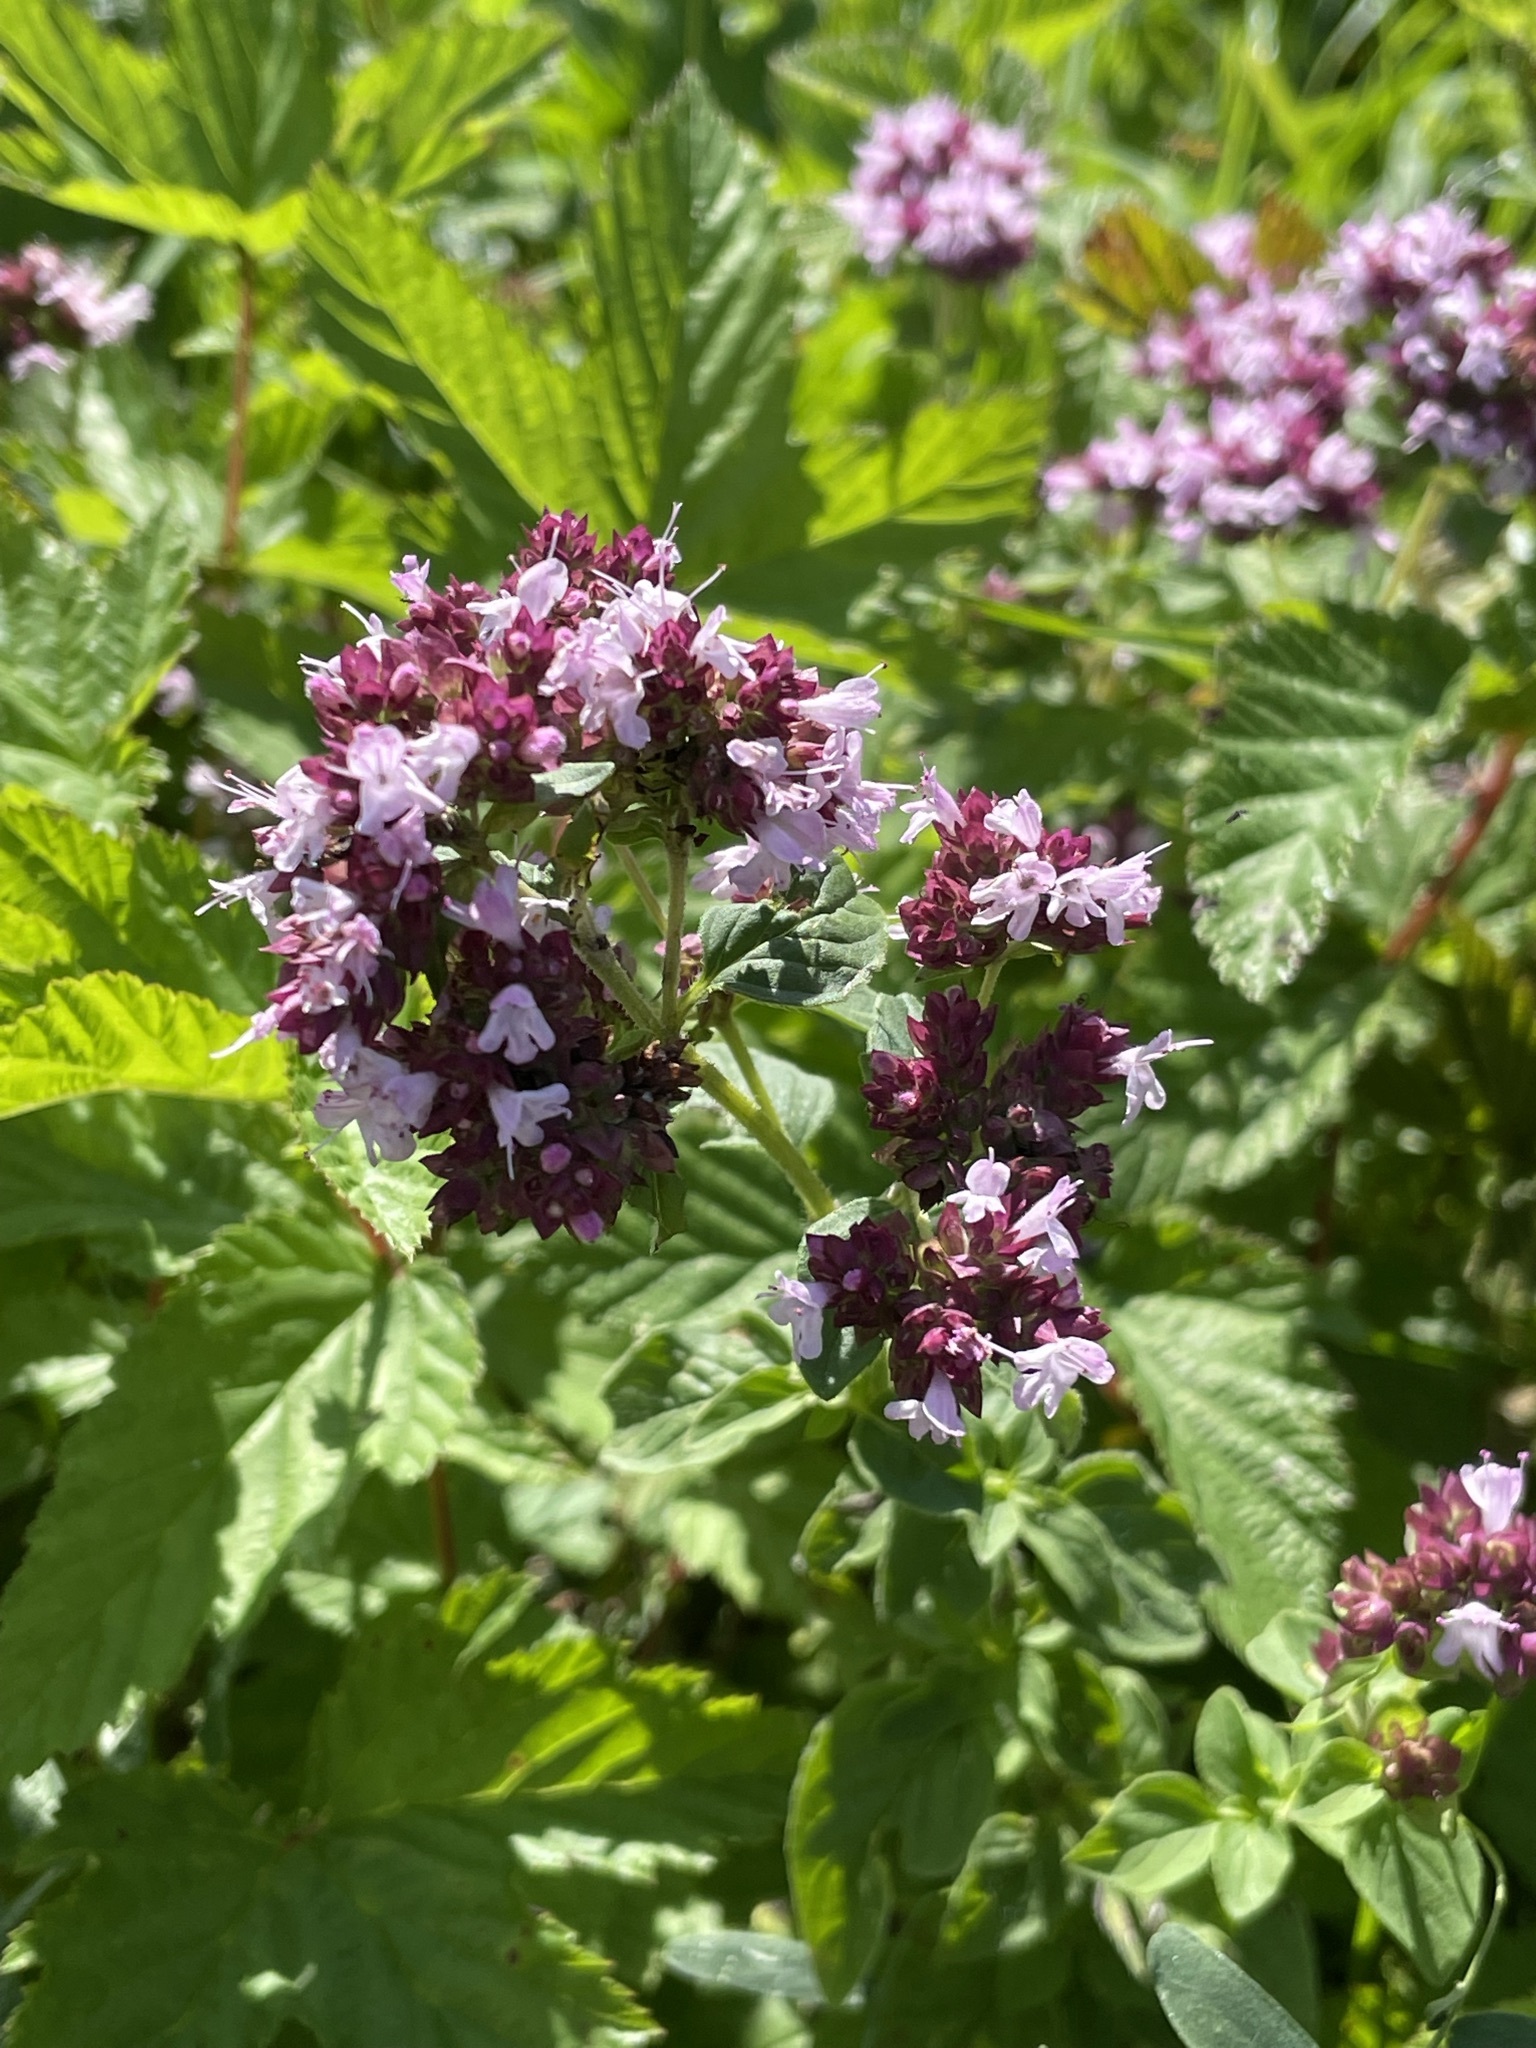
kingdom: Plantae
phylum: Tracheophyta
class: Magnoliopsida
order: Lamiales
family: Lamiaceae
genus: Origanum
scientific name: Origanum vulgare
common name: Wild marjoram
